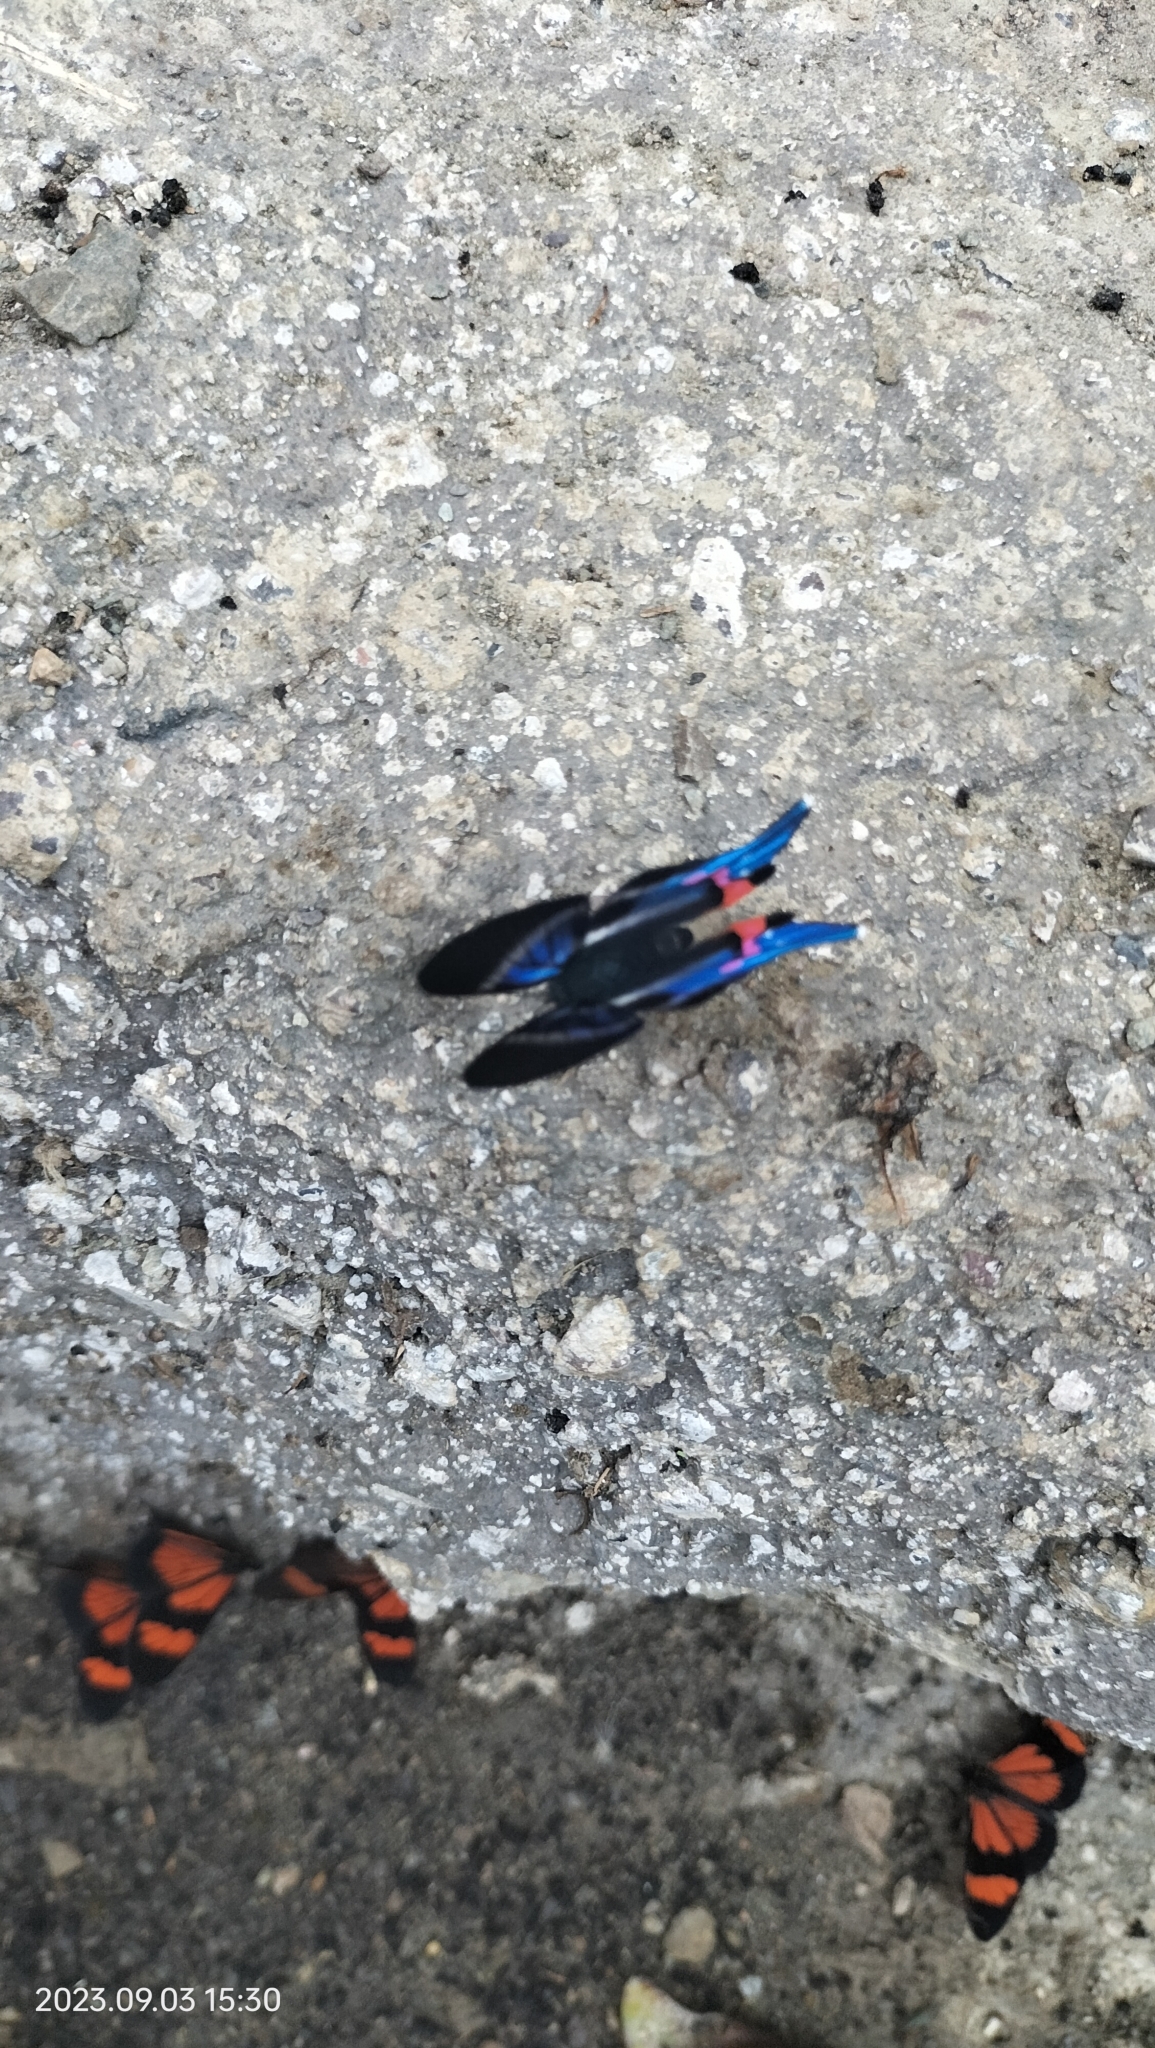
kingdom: Animalia
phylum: Arthropoda
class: Insecta
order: Lepidoptera
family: Riodinidae
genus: Rhetus
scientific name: Rhetus dysonii
